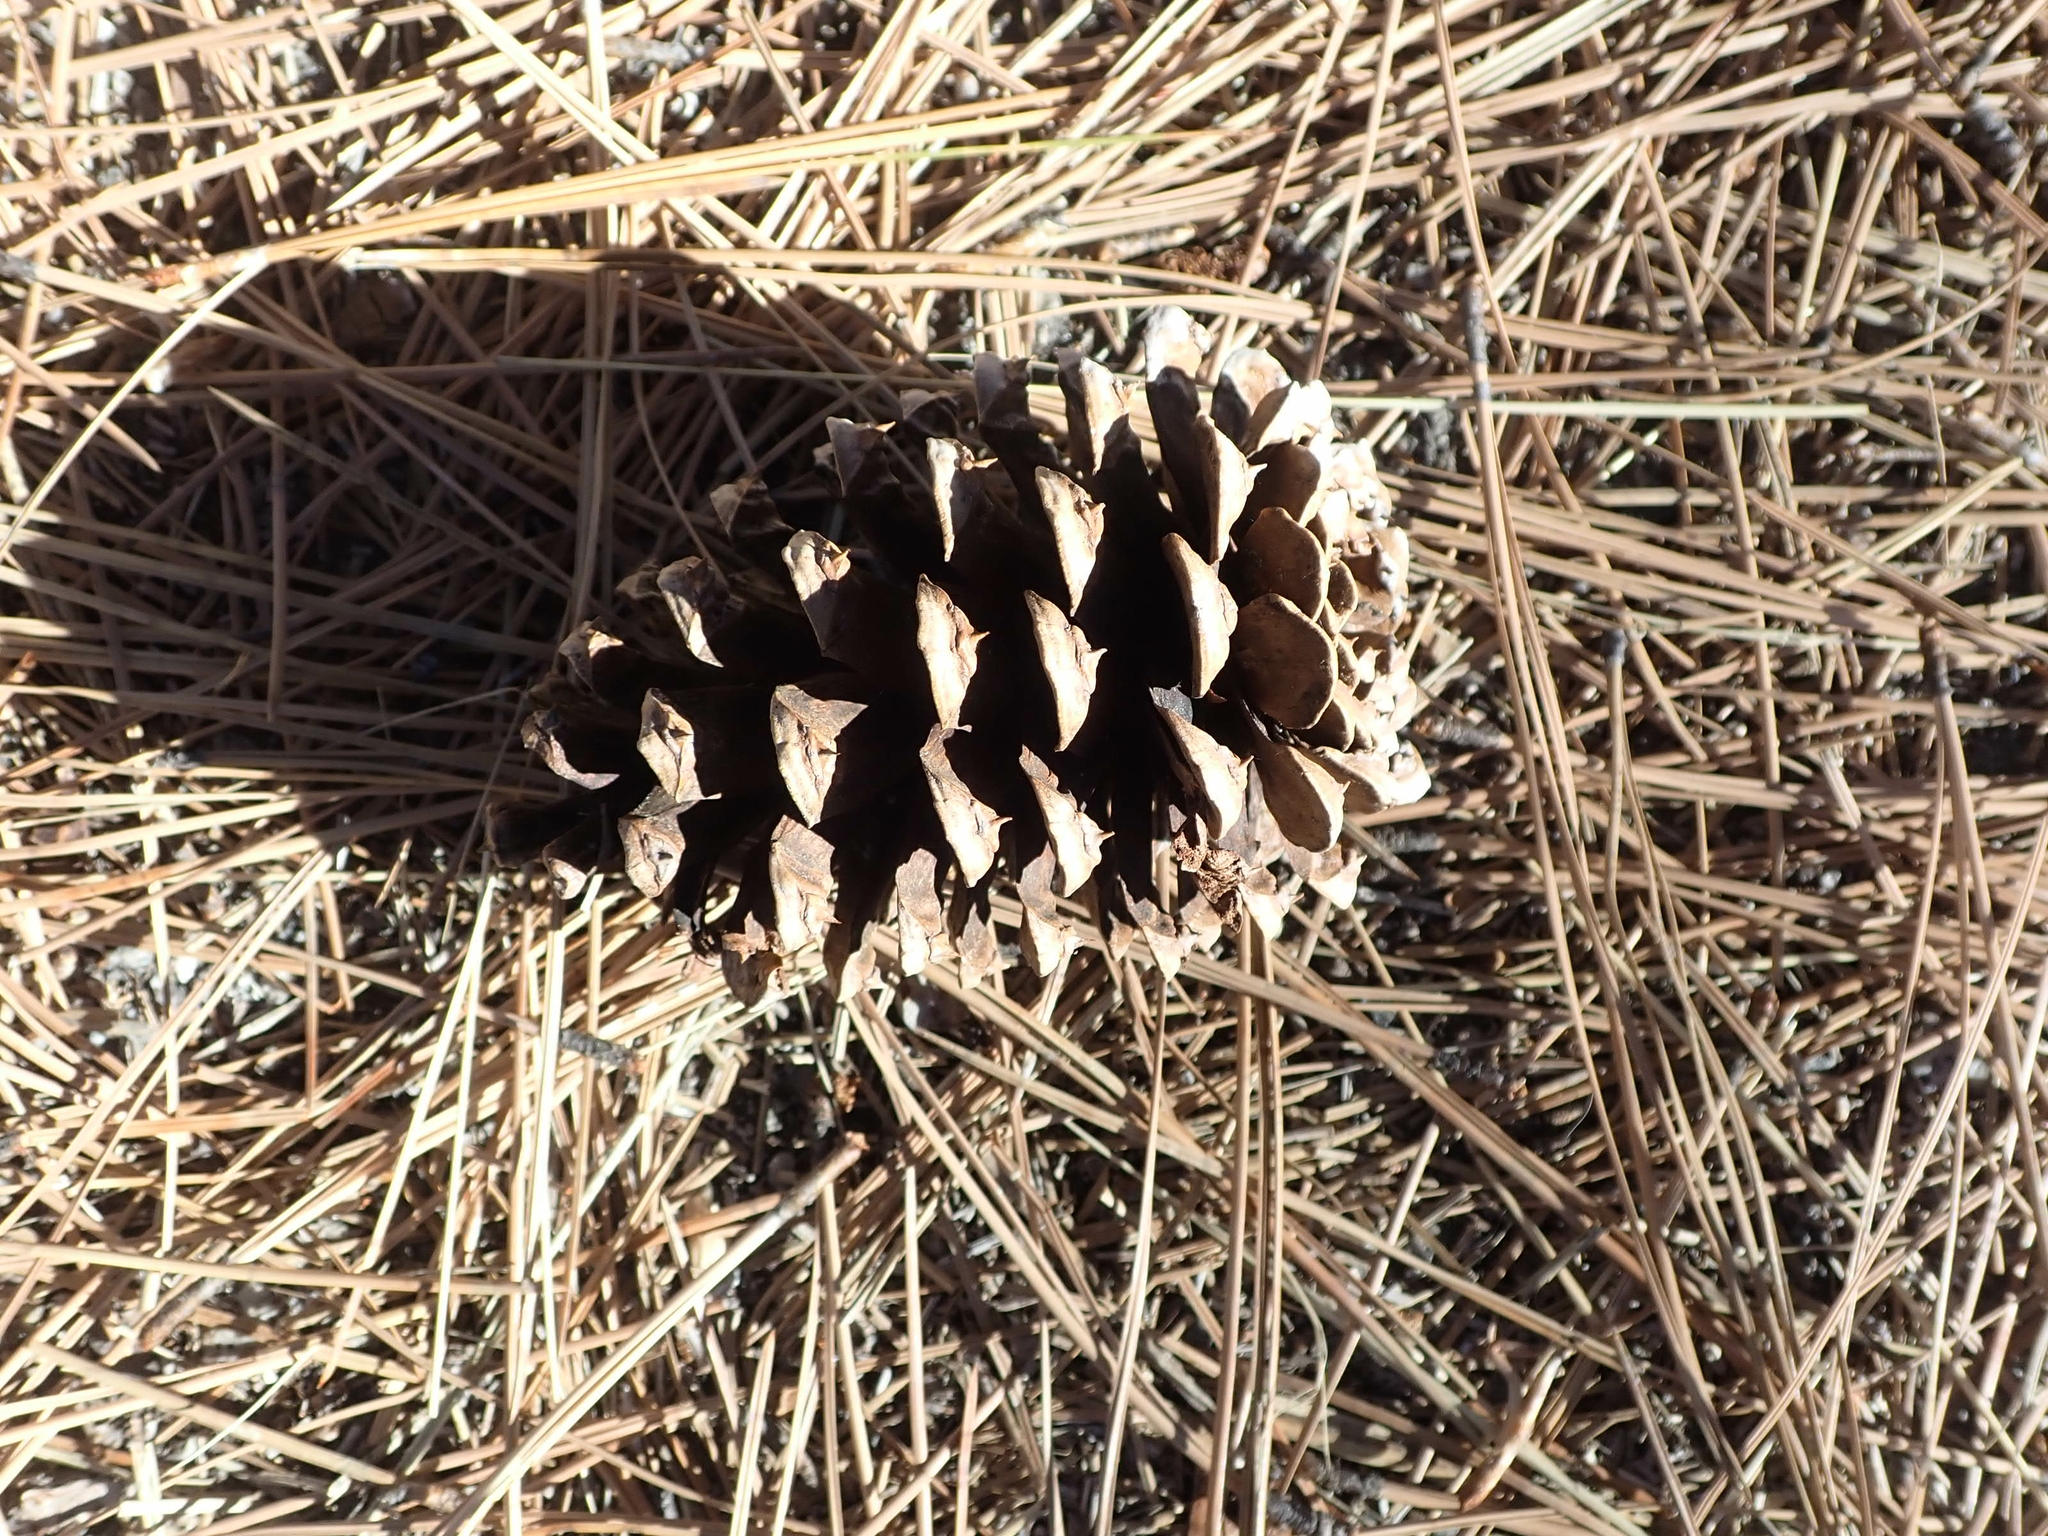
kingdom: Plantae
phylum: Tracheophyta
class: Pinopsida
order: Pinales
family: Pinaceae
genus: Pinus
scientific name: Pinus ponderosa
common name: Western yellow-pine
